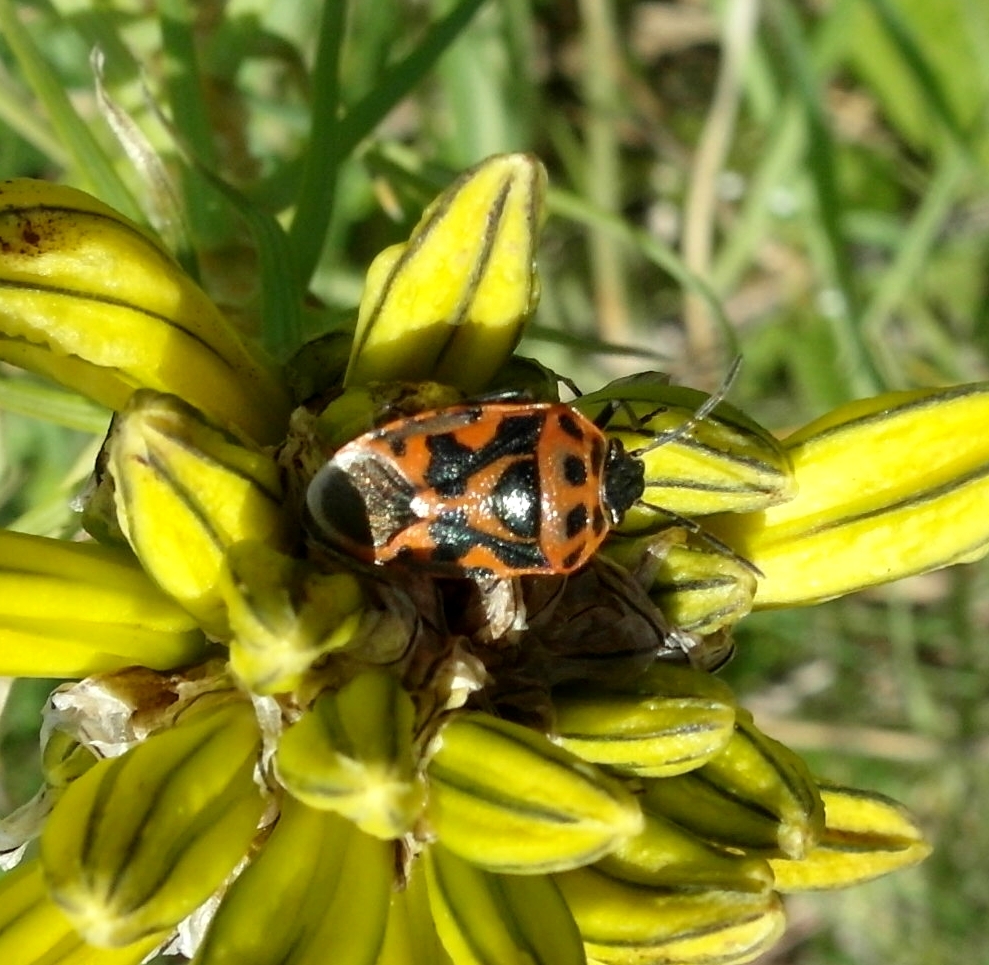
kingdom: Animalia
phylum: Arthropoda
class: Insecta
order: Hemiptera
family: Pentatomidae
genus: Eurydema
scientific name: Eurydema ornata
